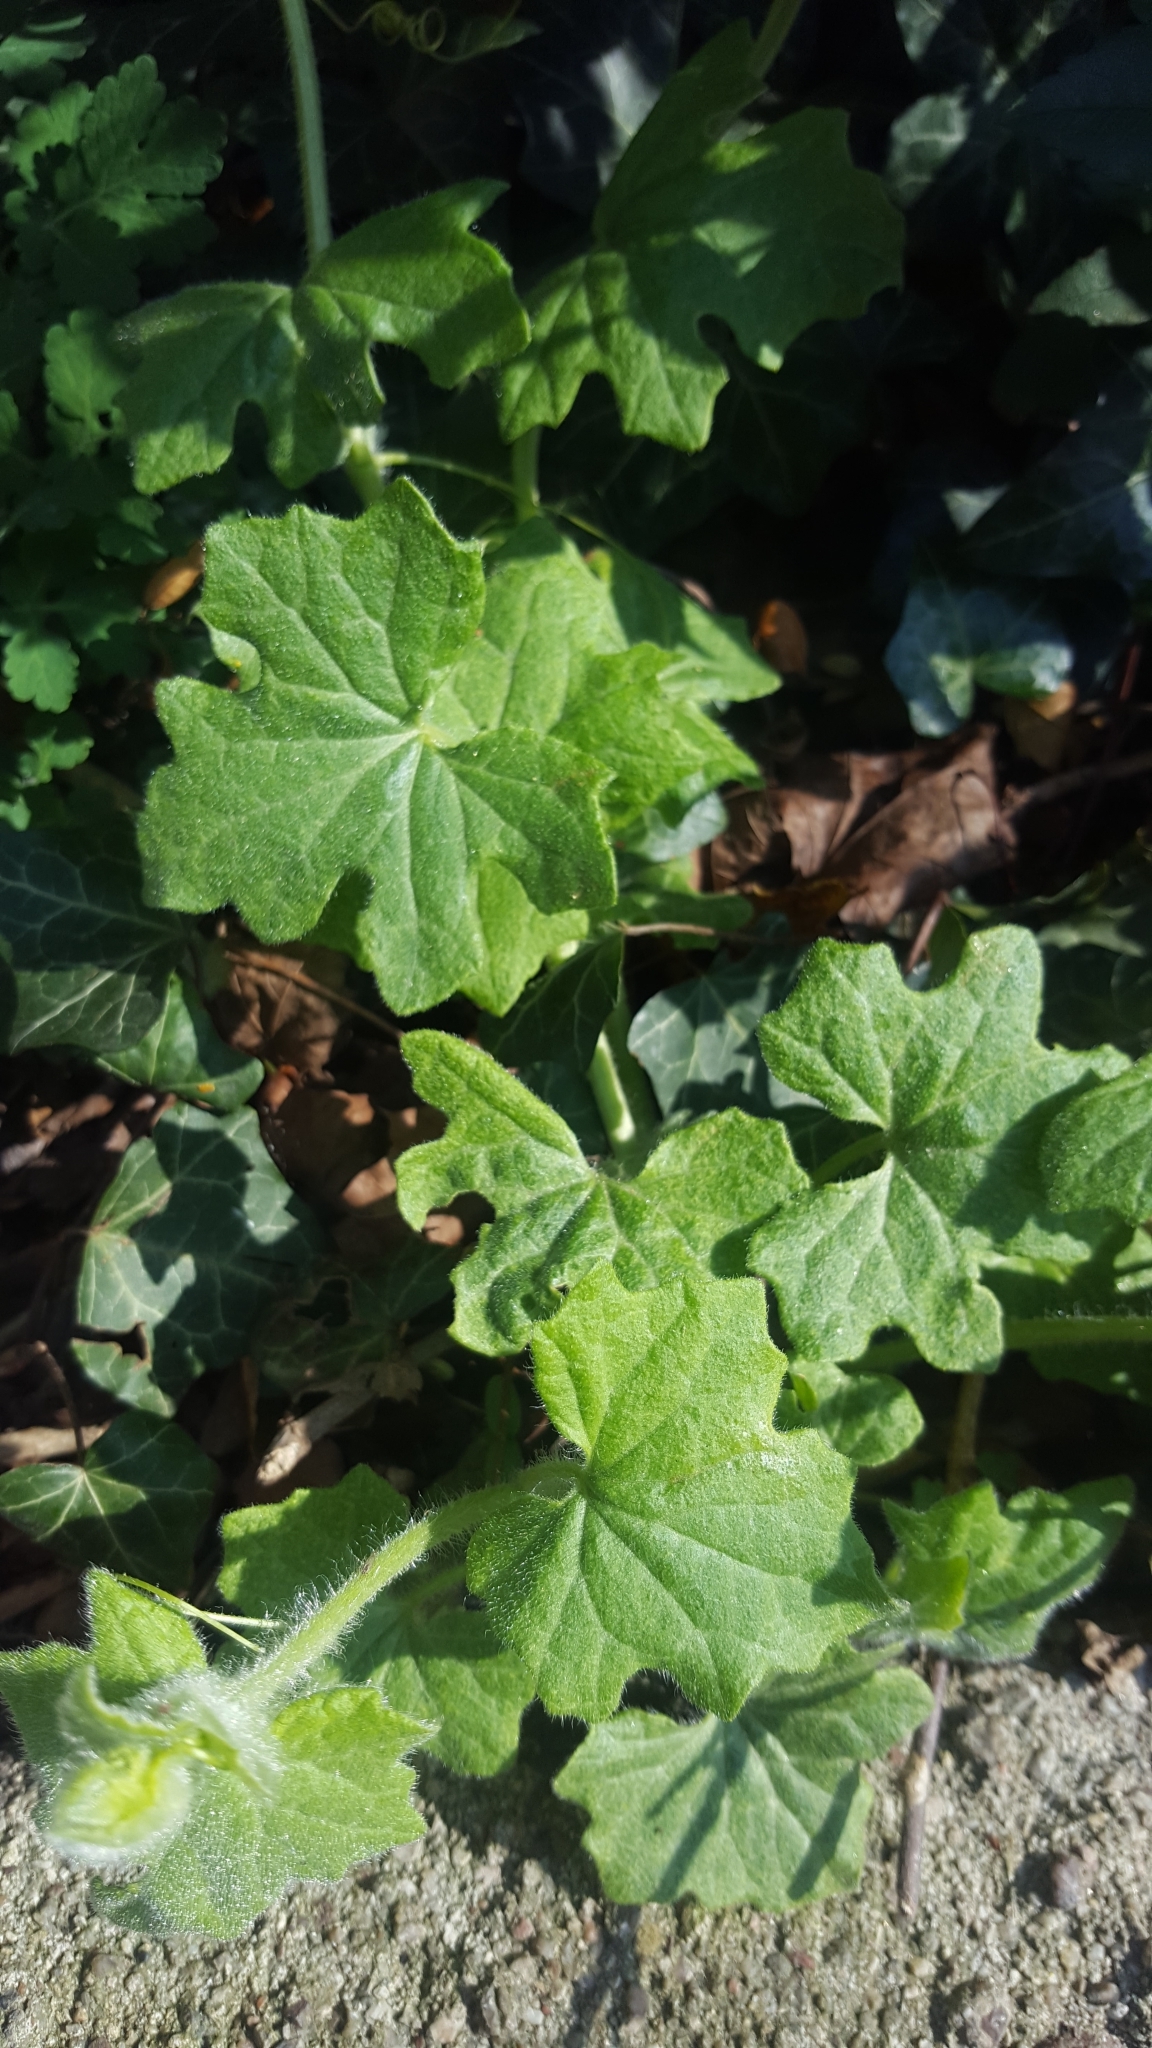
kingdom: Plantae
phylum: Tracheophyta
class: Magnoliopsida
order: Cucurbitales
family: Cucurbitaceae
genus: Bryonia
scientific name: Bryonia cretica
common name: Cretan bryony
